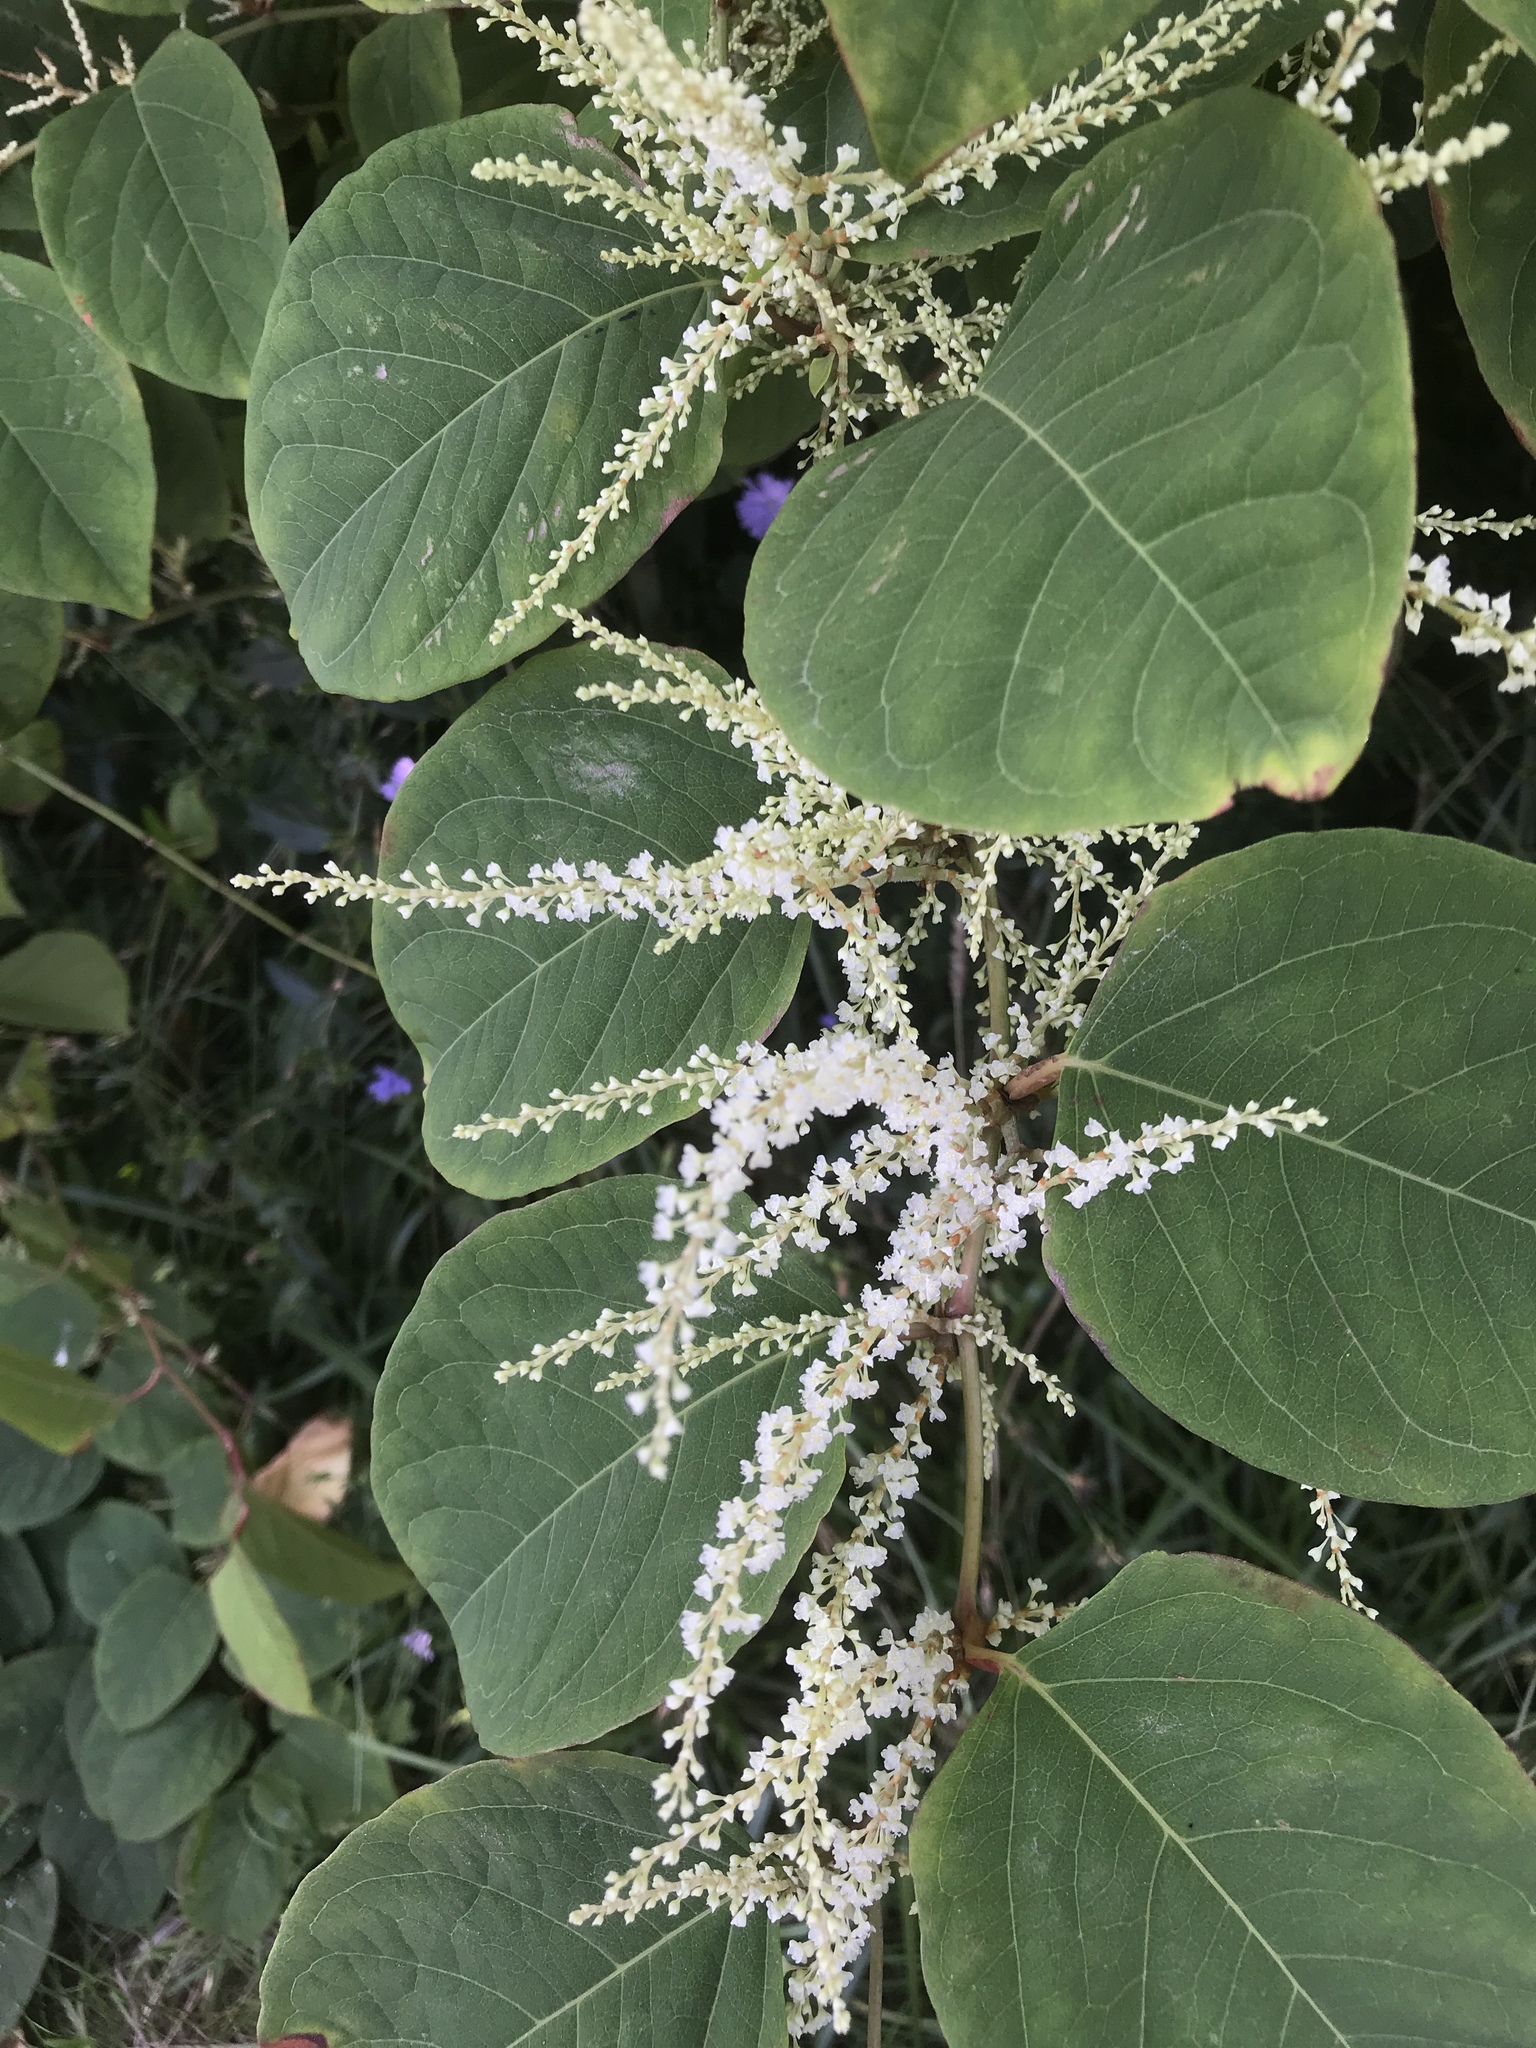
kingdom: Plantae
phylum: Tracheophyta
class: Magnoliopsida
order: Caryophyllales
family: Polygonaceae
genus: Reynoutria
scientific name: Reynoutria japonica
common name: Japanese knotweed
